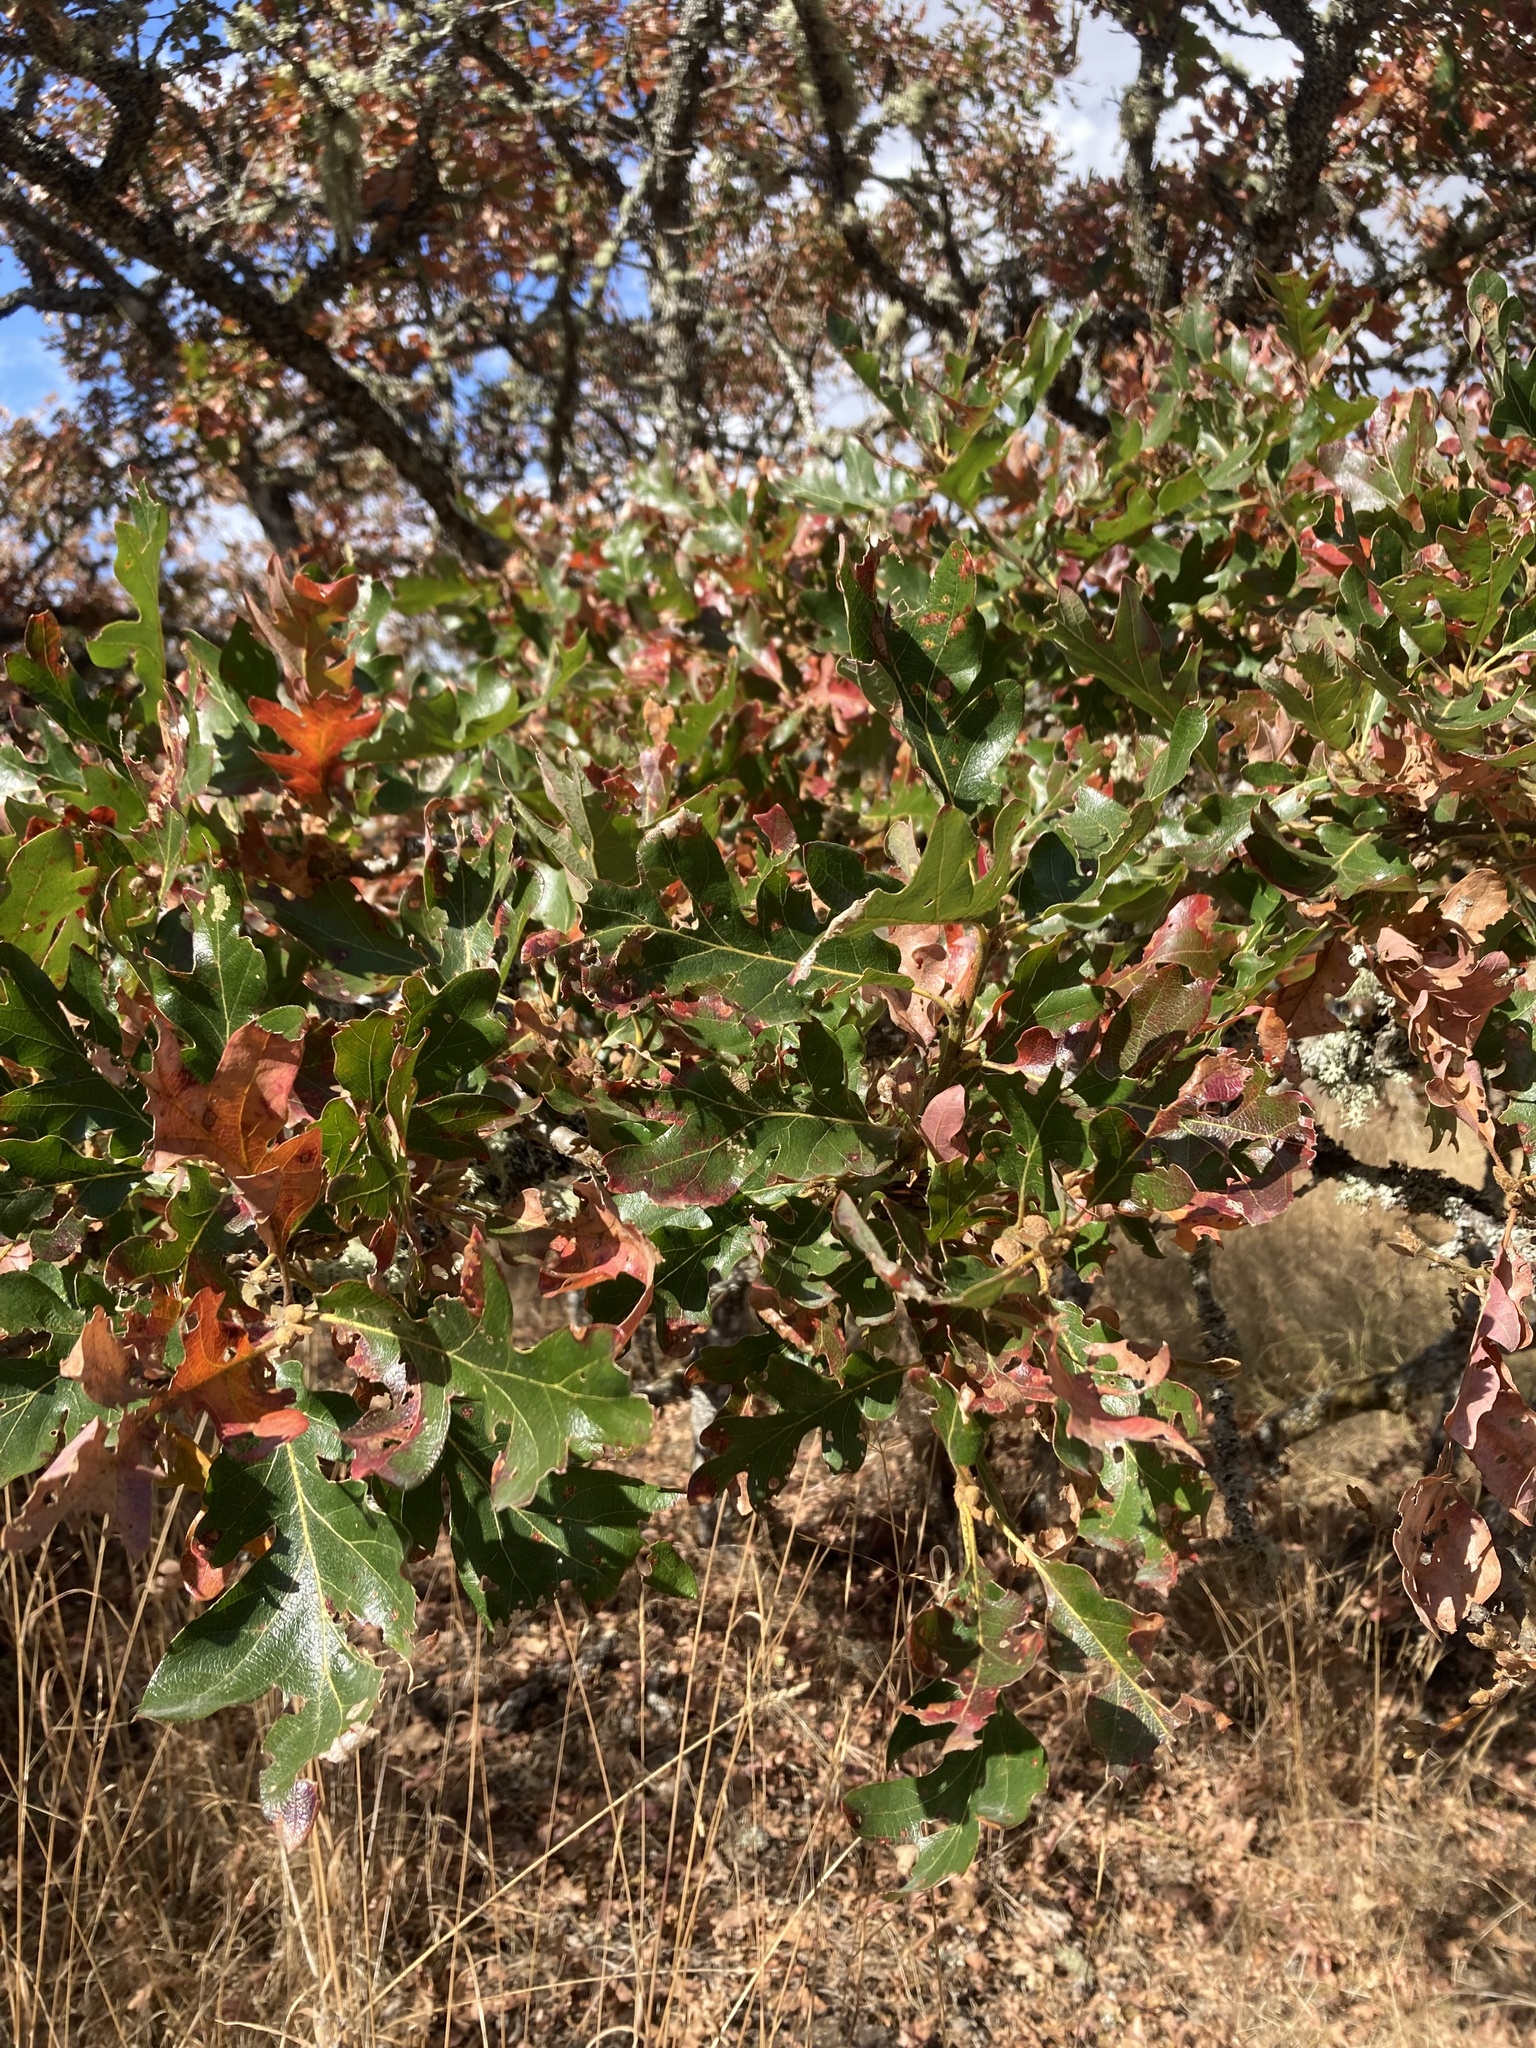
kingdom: Plantae
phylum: Tracheophyta
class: Magnoliopsida
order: Fagales
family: Fagaceae
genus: Quercus
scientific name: Quercus garryana
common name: Garry oak
